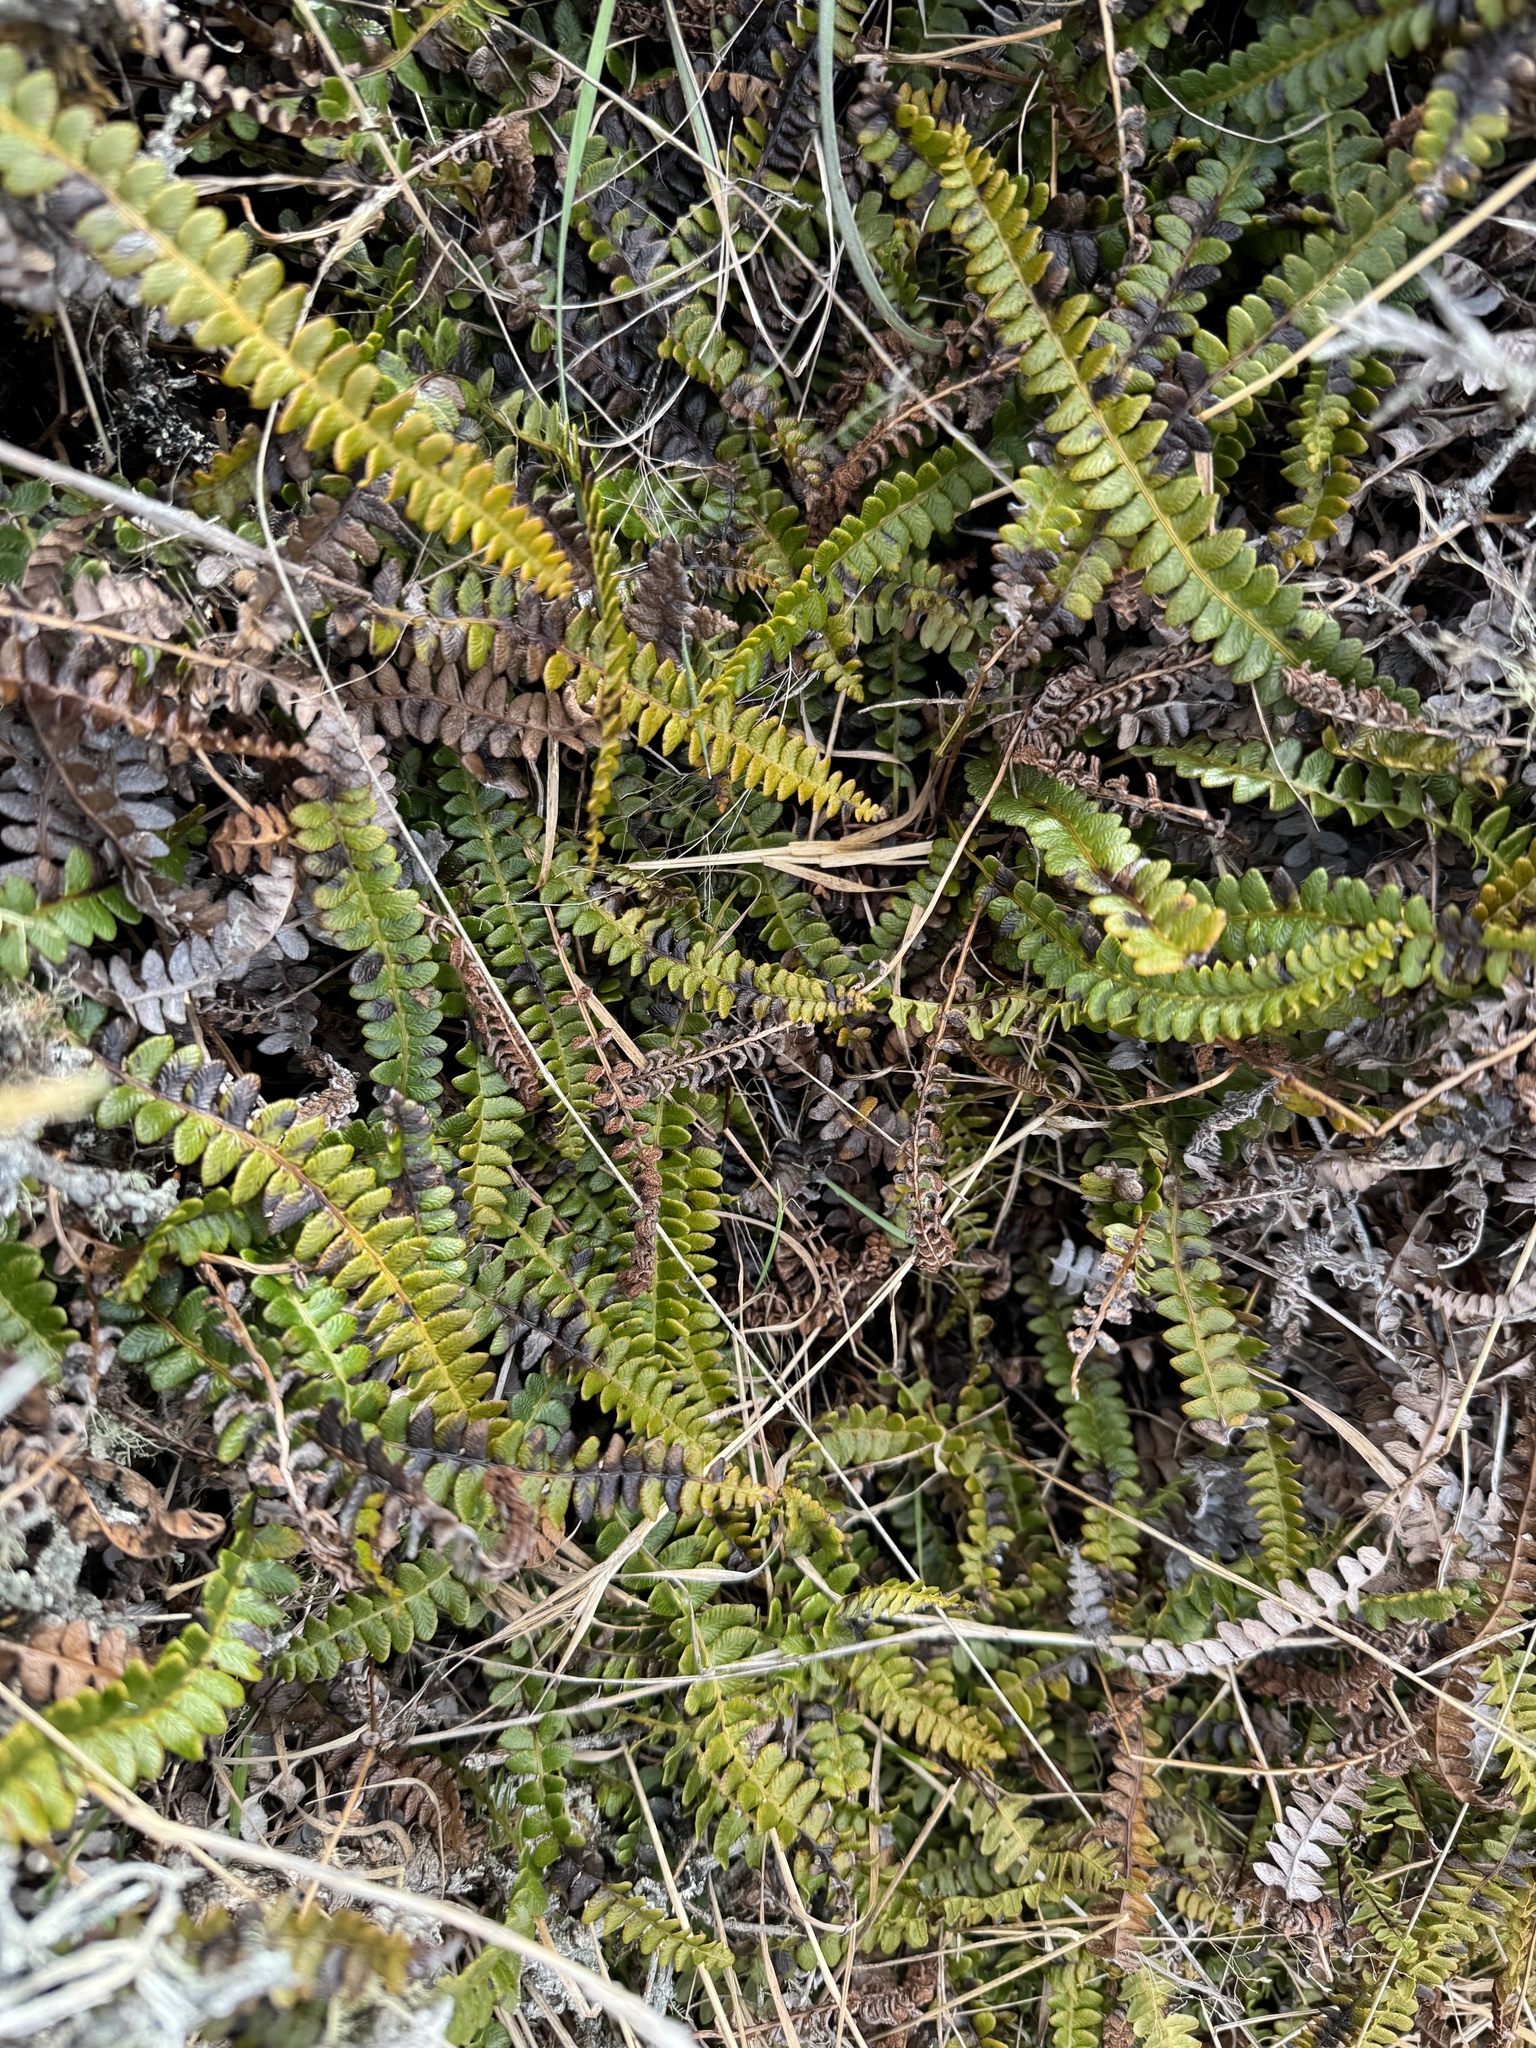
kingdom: Plantae
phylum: Tracheophyta
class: Polypodiopsida
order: Polypodiales
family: Blechnaceae
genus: Austroblechnum
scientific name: Austroblechnum penna-marina
